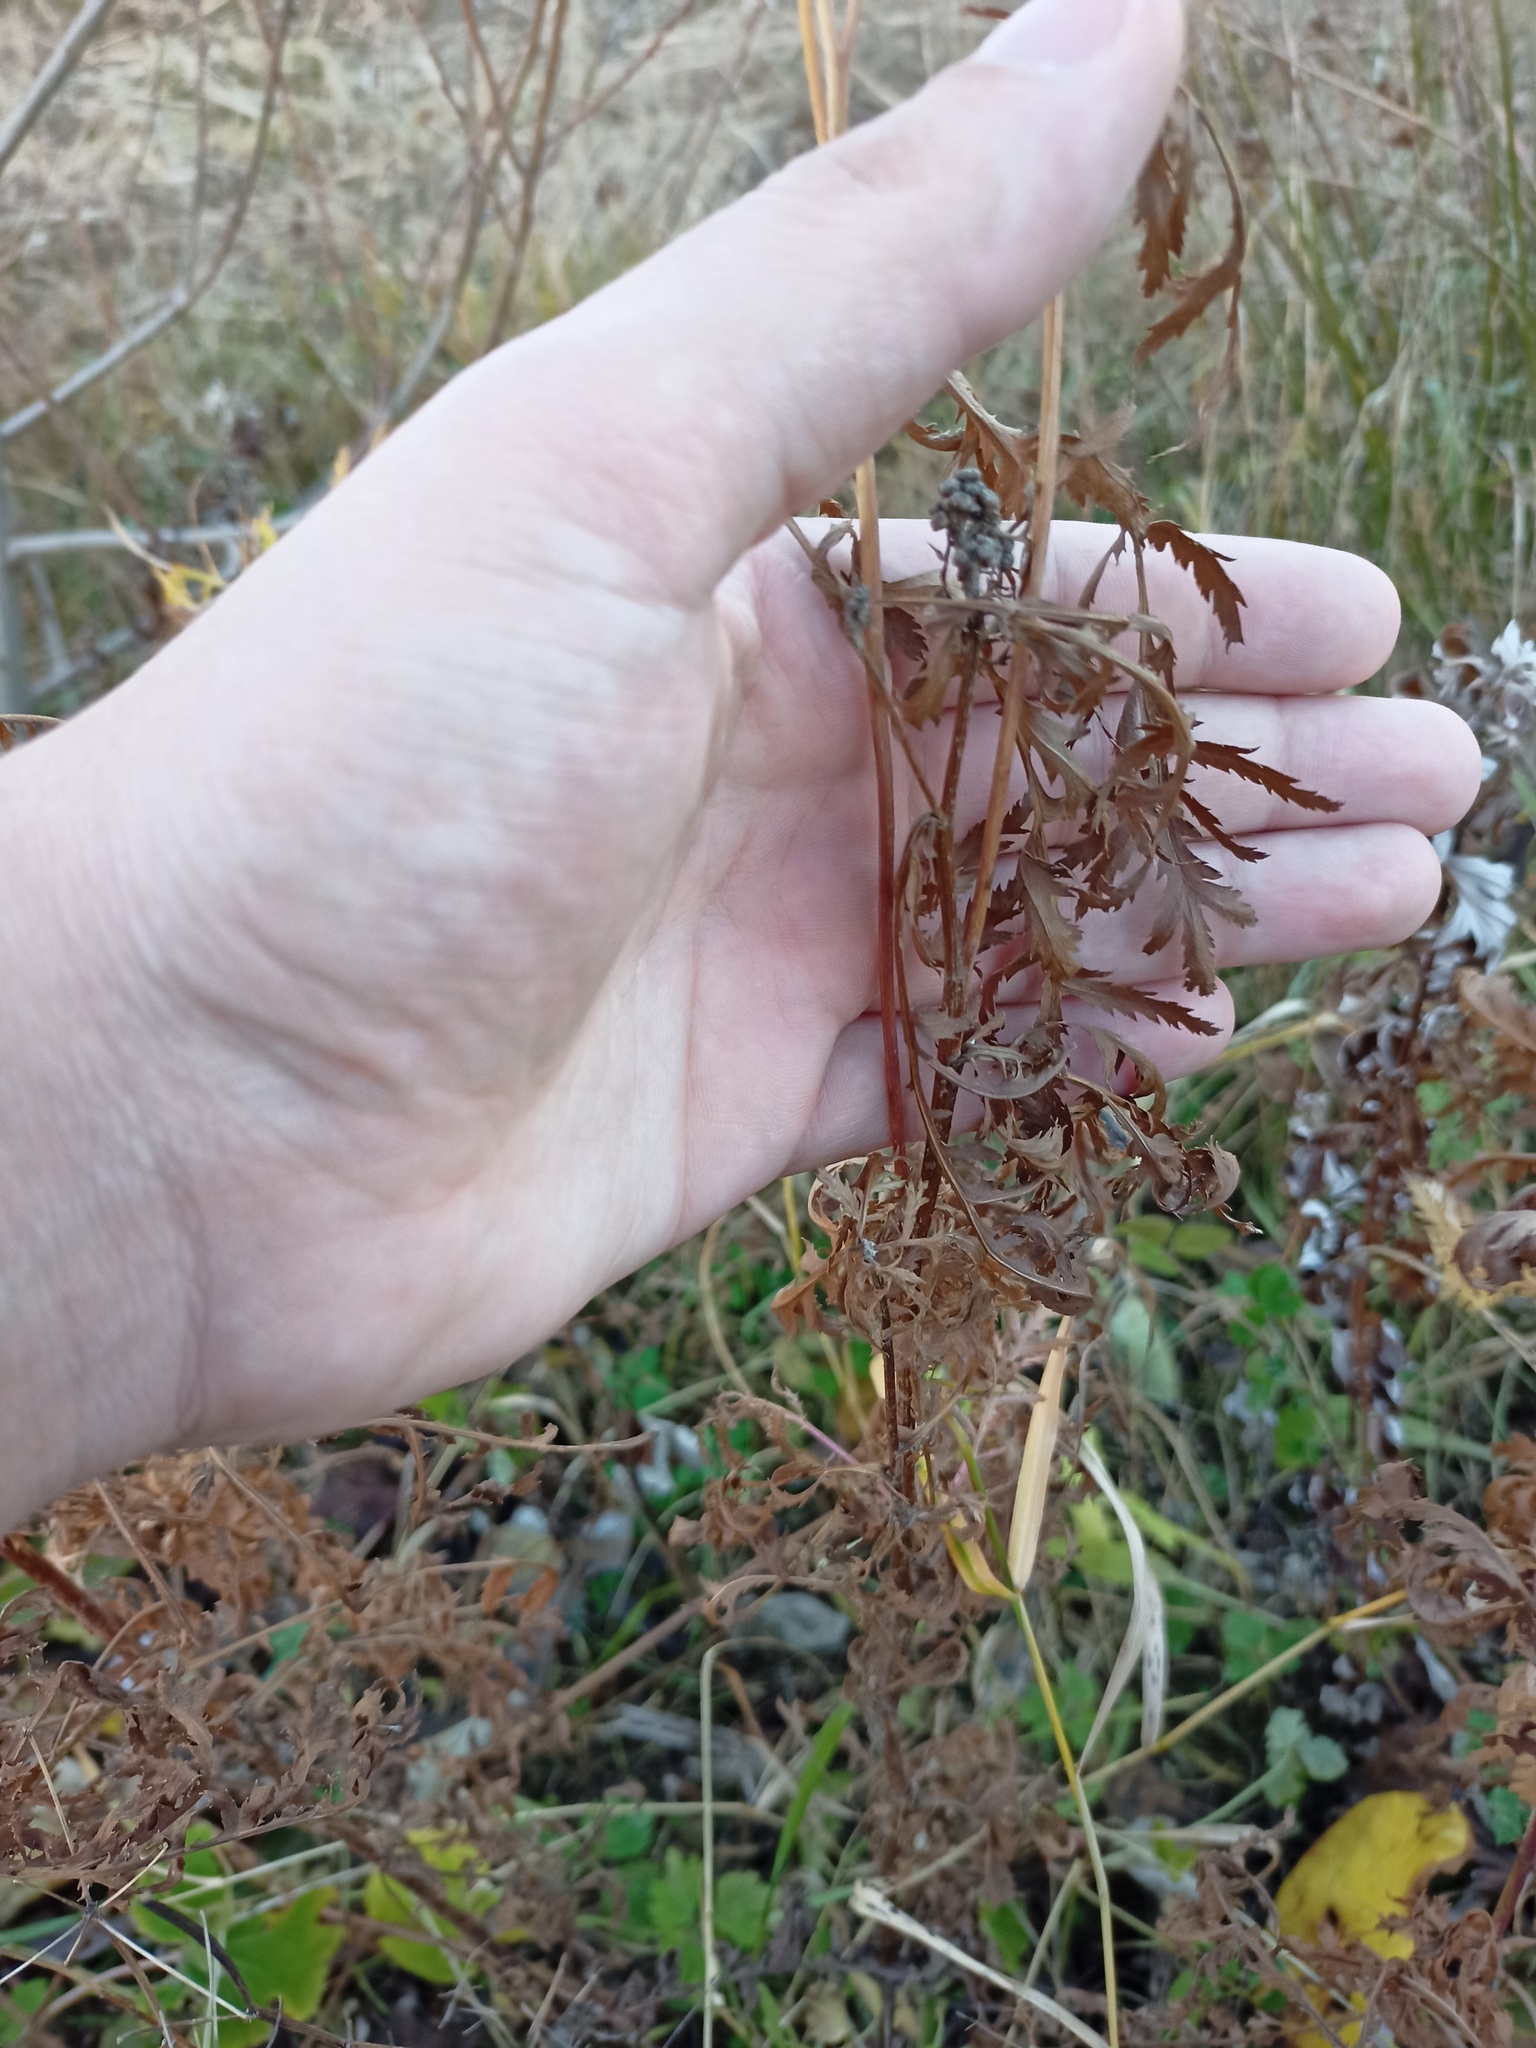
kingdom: Plantae
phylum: Tracheophyta
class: Magnoliopsida
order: Asterales
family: Asteraceae
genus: Tanacetum
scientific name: Tanacetum vulgare
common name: Common tansy
